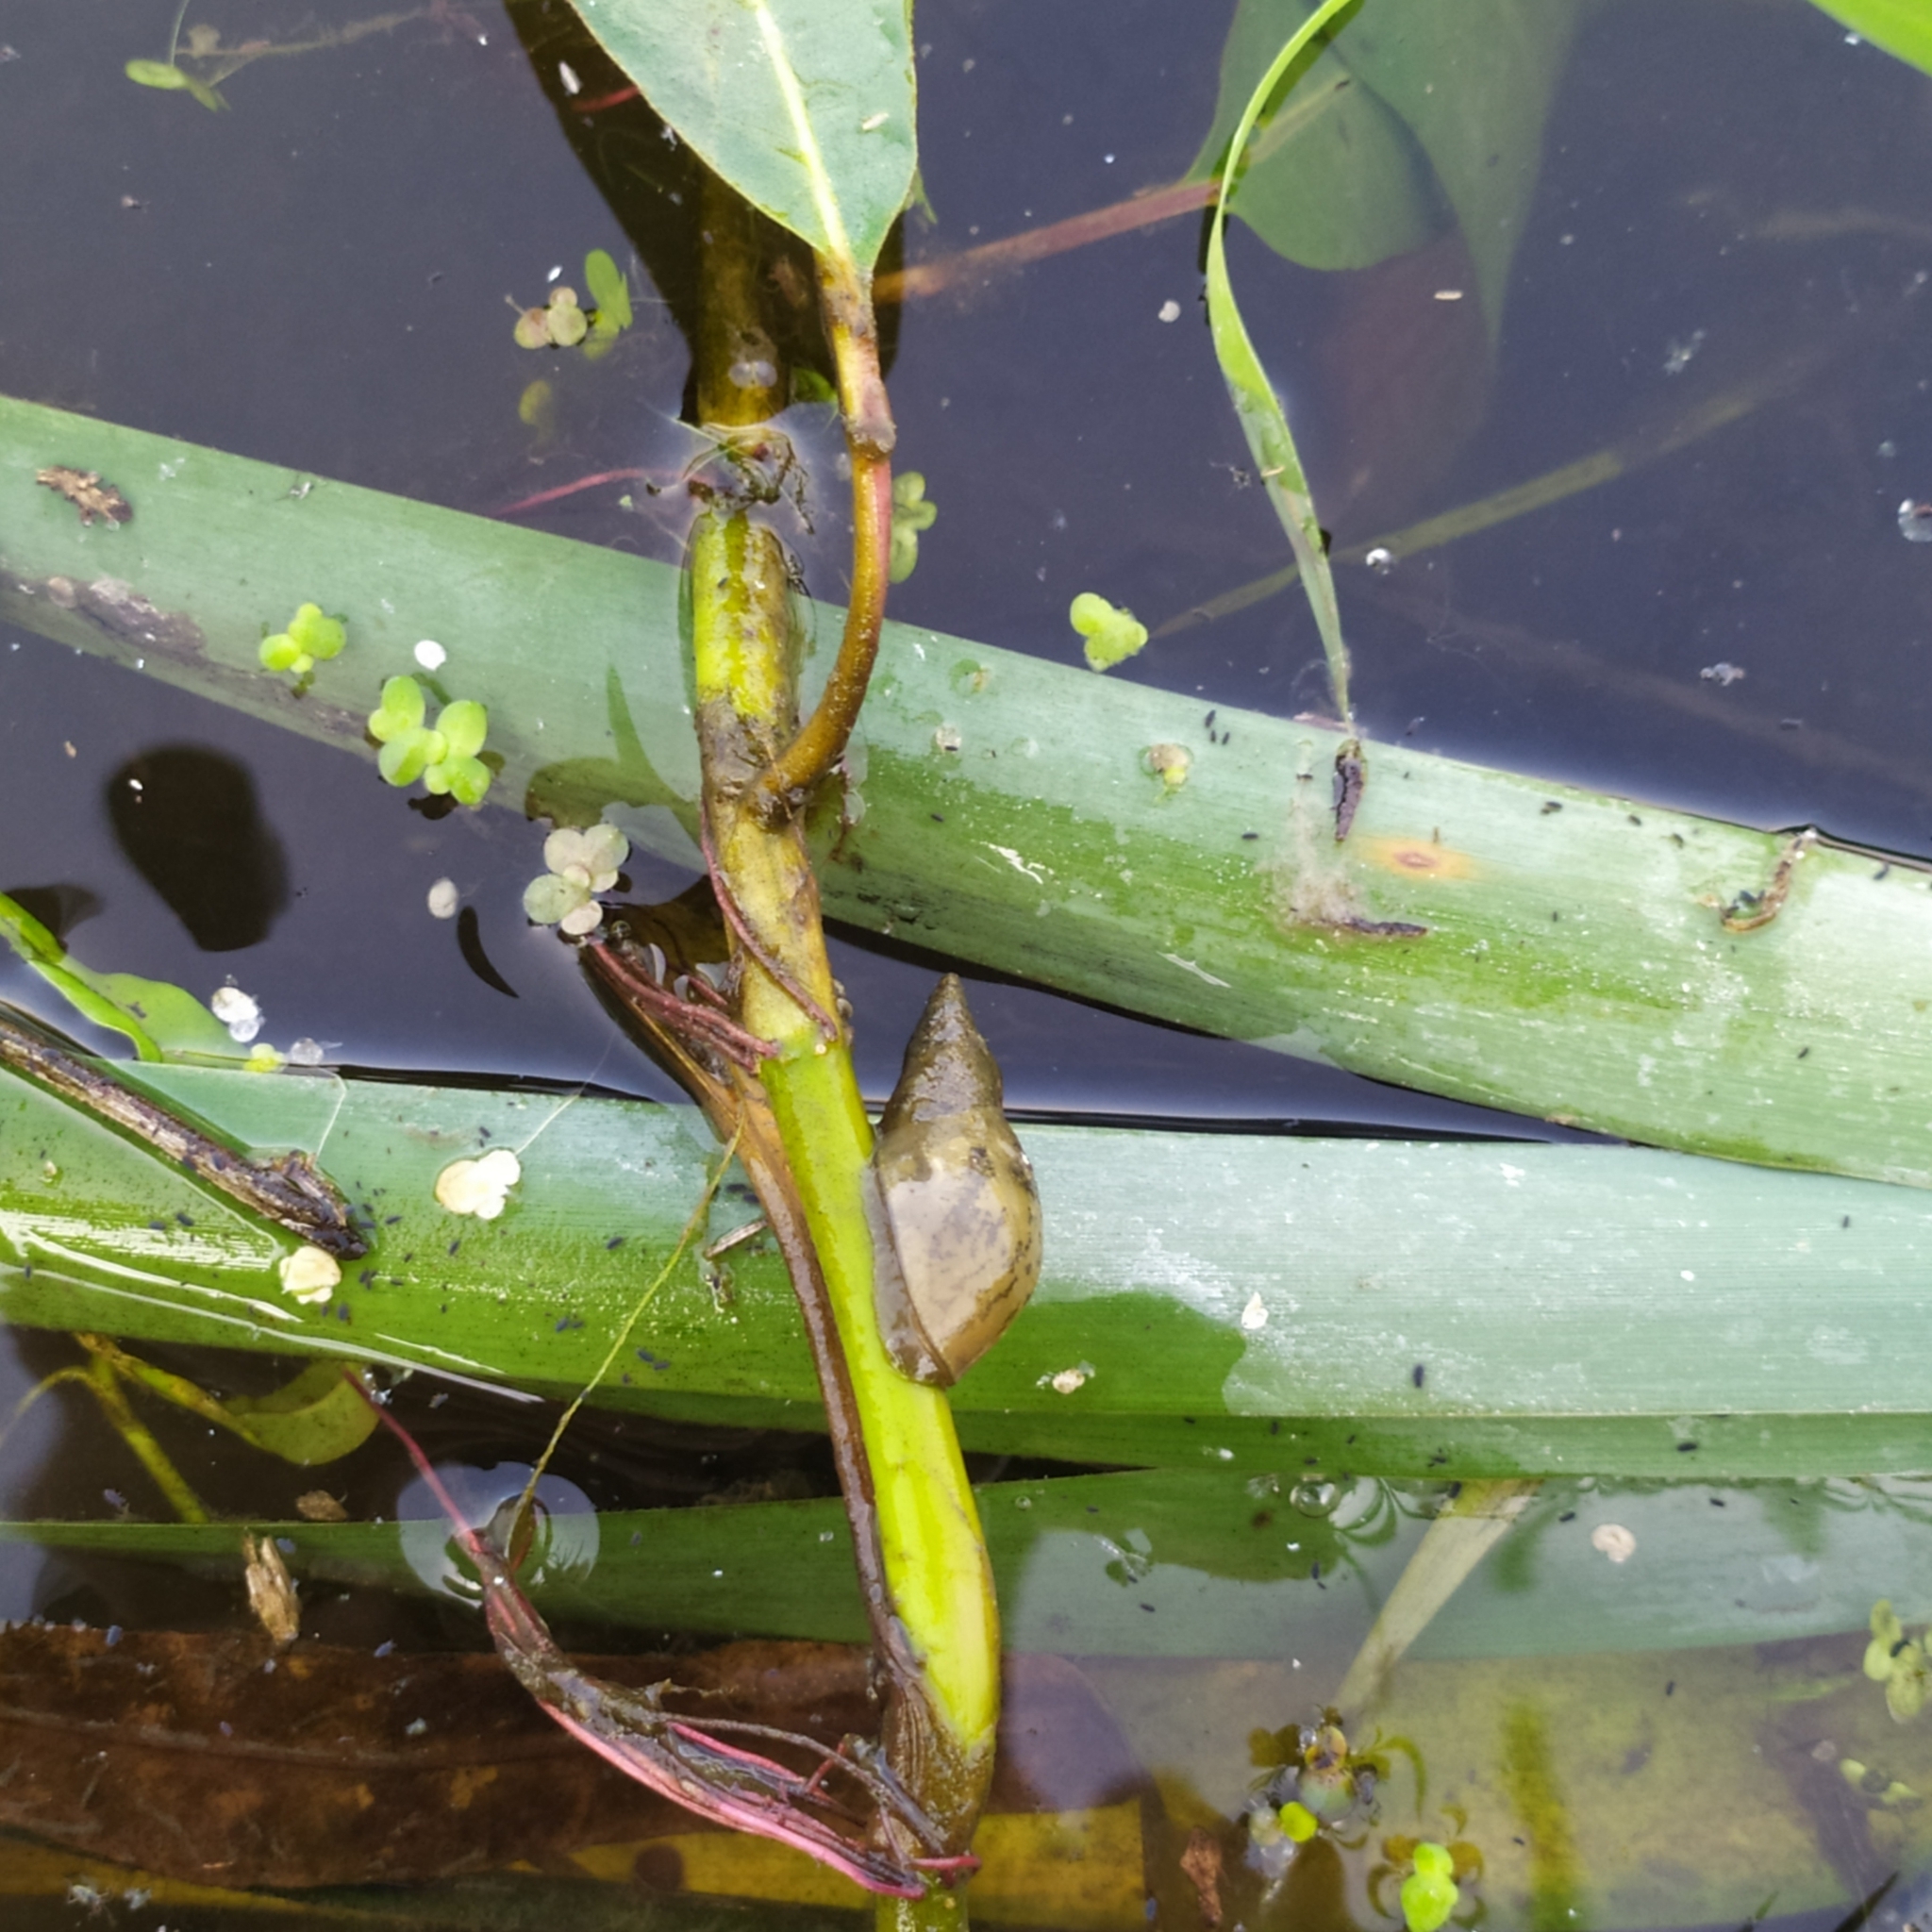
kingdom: Animalia
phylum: Mollusca
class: Gastropoda
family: Lymnaeidae
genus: Lymnaea
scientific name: Lymnaea stagnalis
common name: Great pond snail
